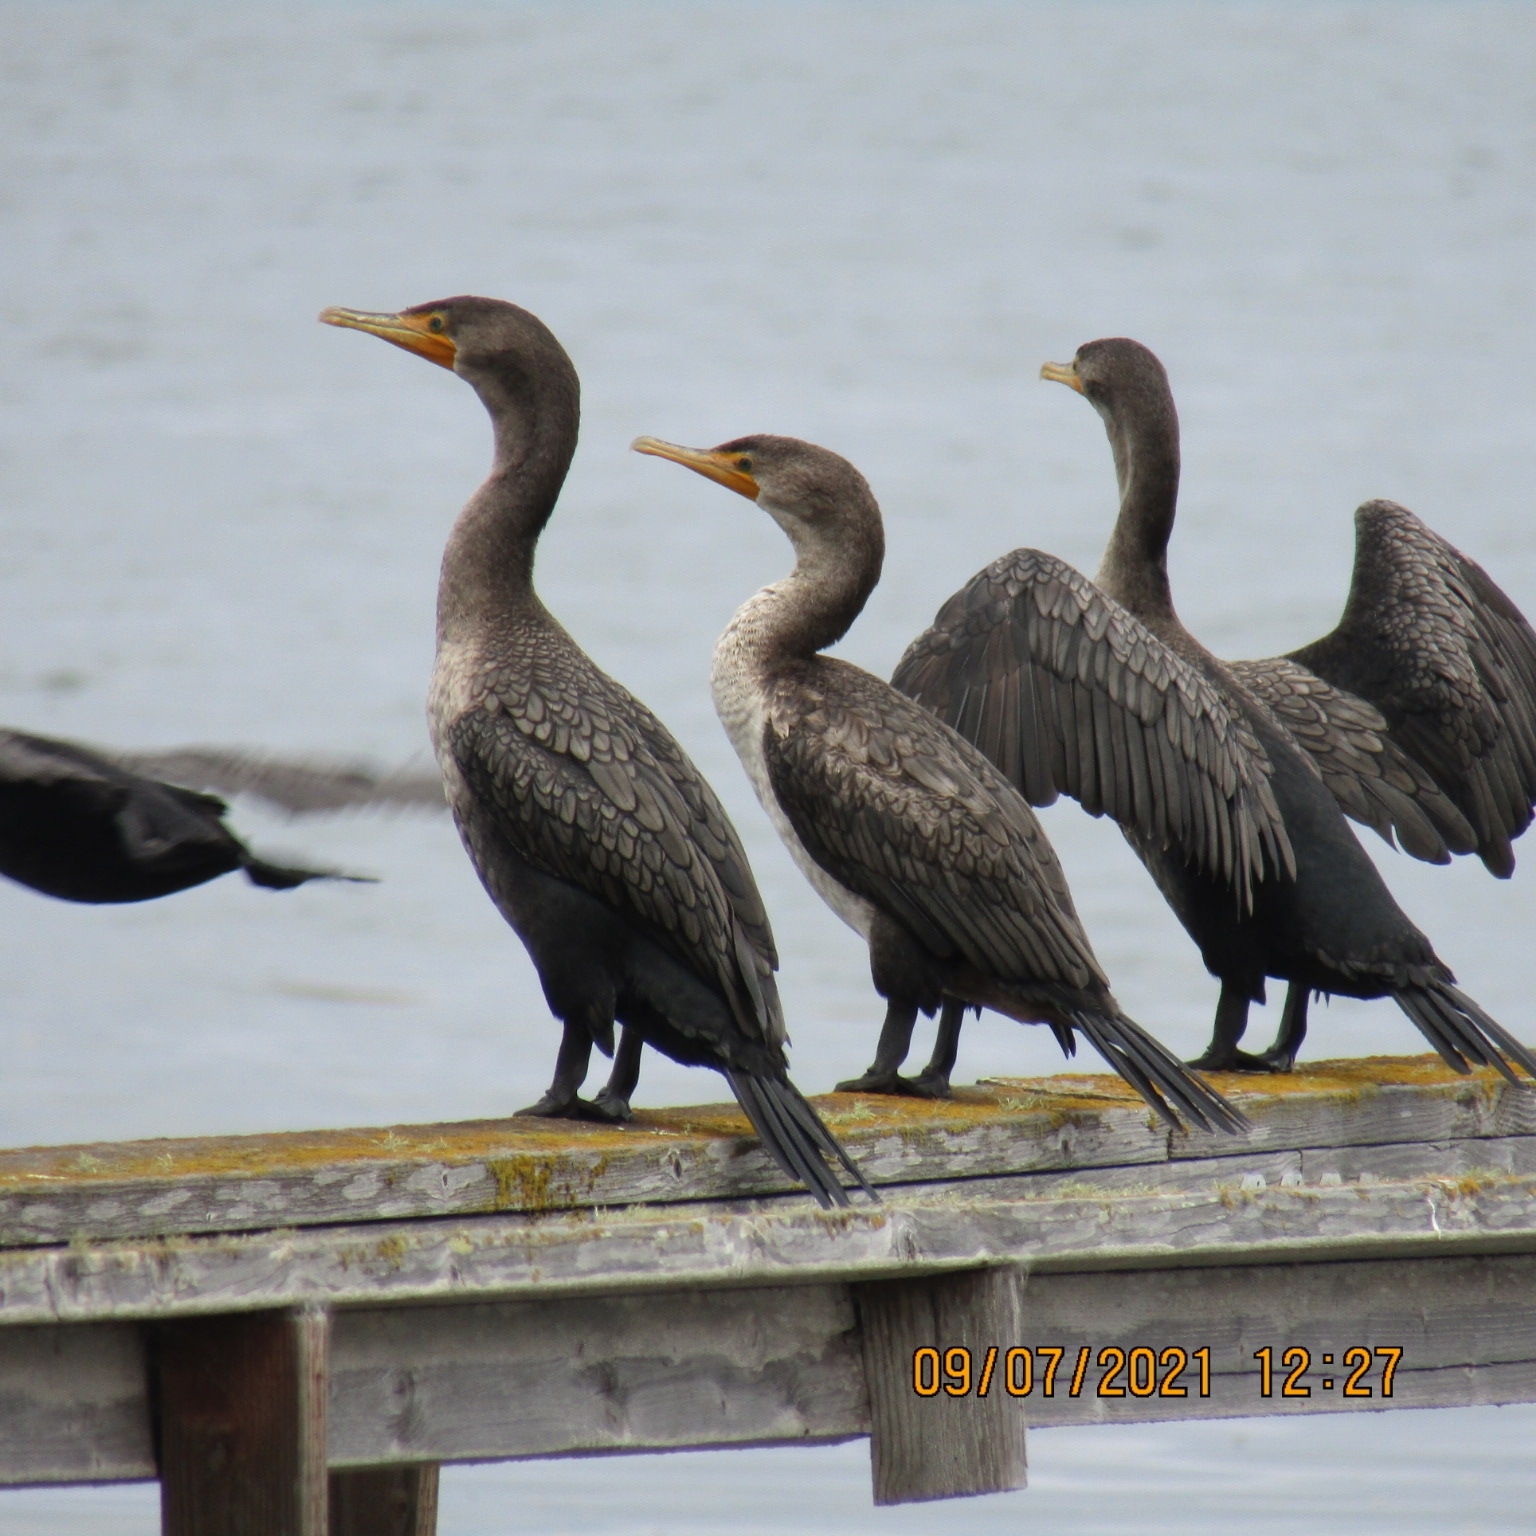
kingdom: Animalia
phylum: Chordata
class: Aves
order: Suliformes
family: Phalacrocoracidae
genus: Phalacrocorax
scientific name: Phalacrocorax auritus
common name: Double-crested cormorant
